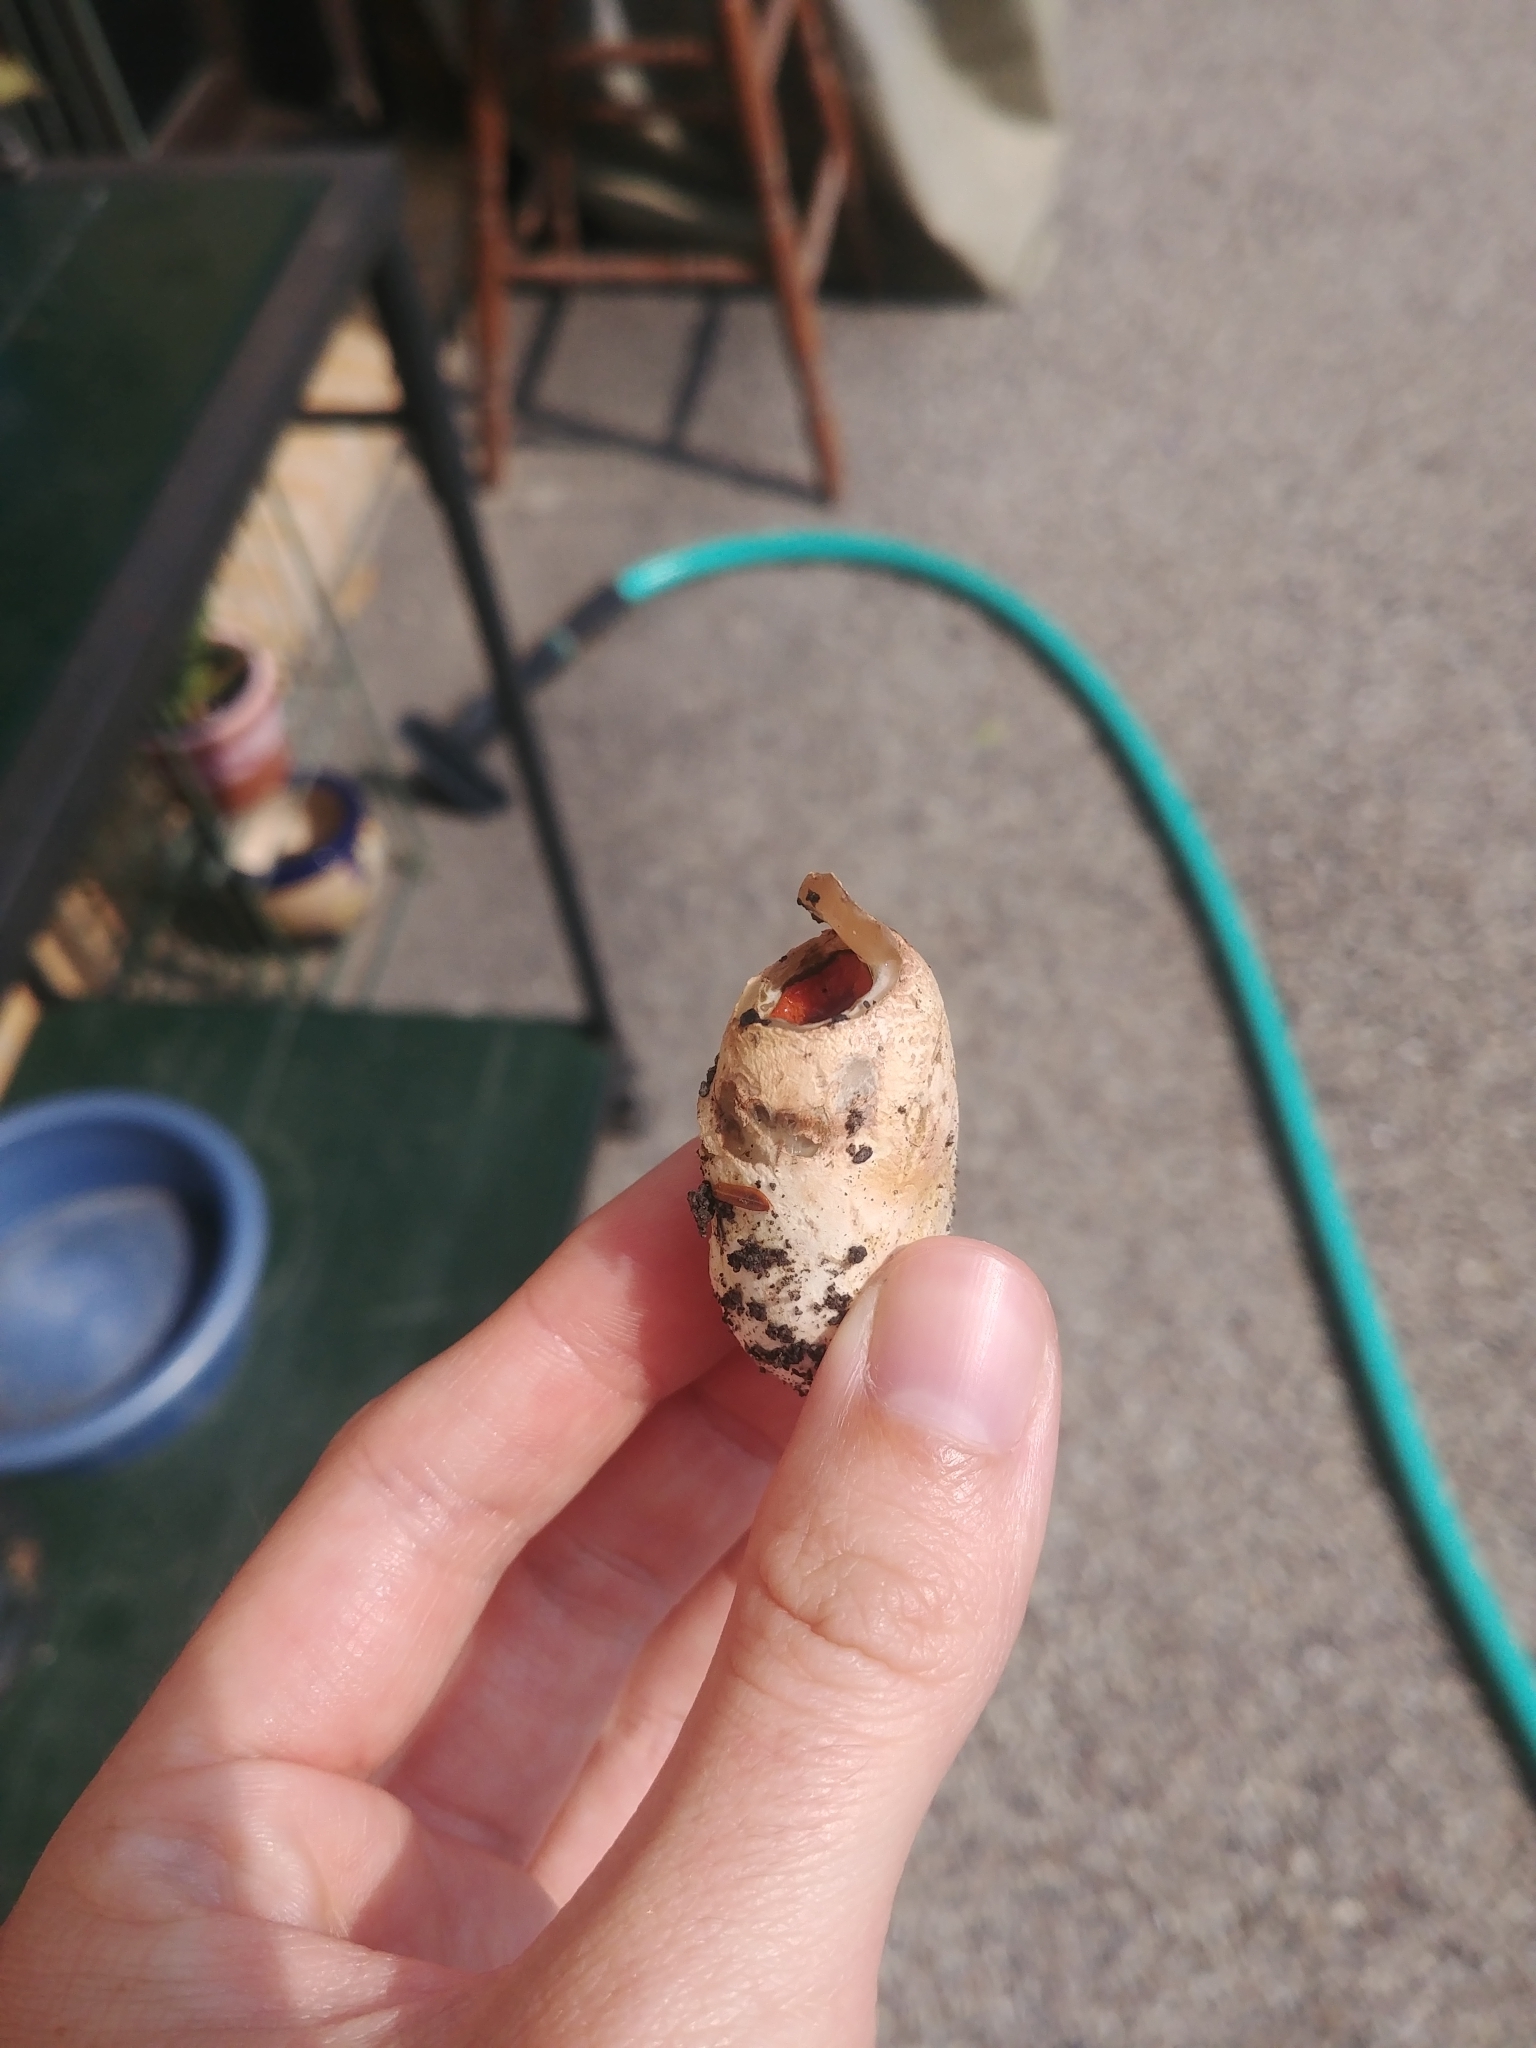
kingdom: Fungi
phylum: Basidiomycota
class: Agaricomycetes
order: Phallales
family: Phallaceae
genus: Mutinus
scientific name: Mutinus elegans
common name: Devil's dipstick
